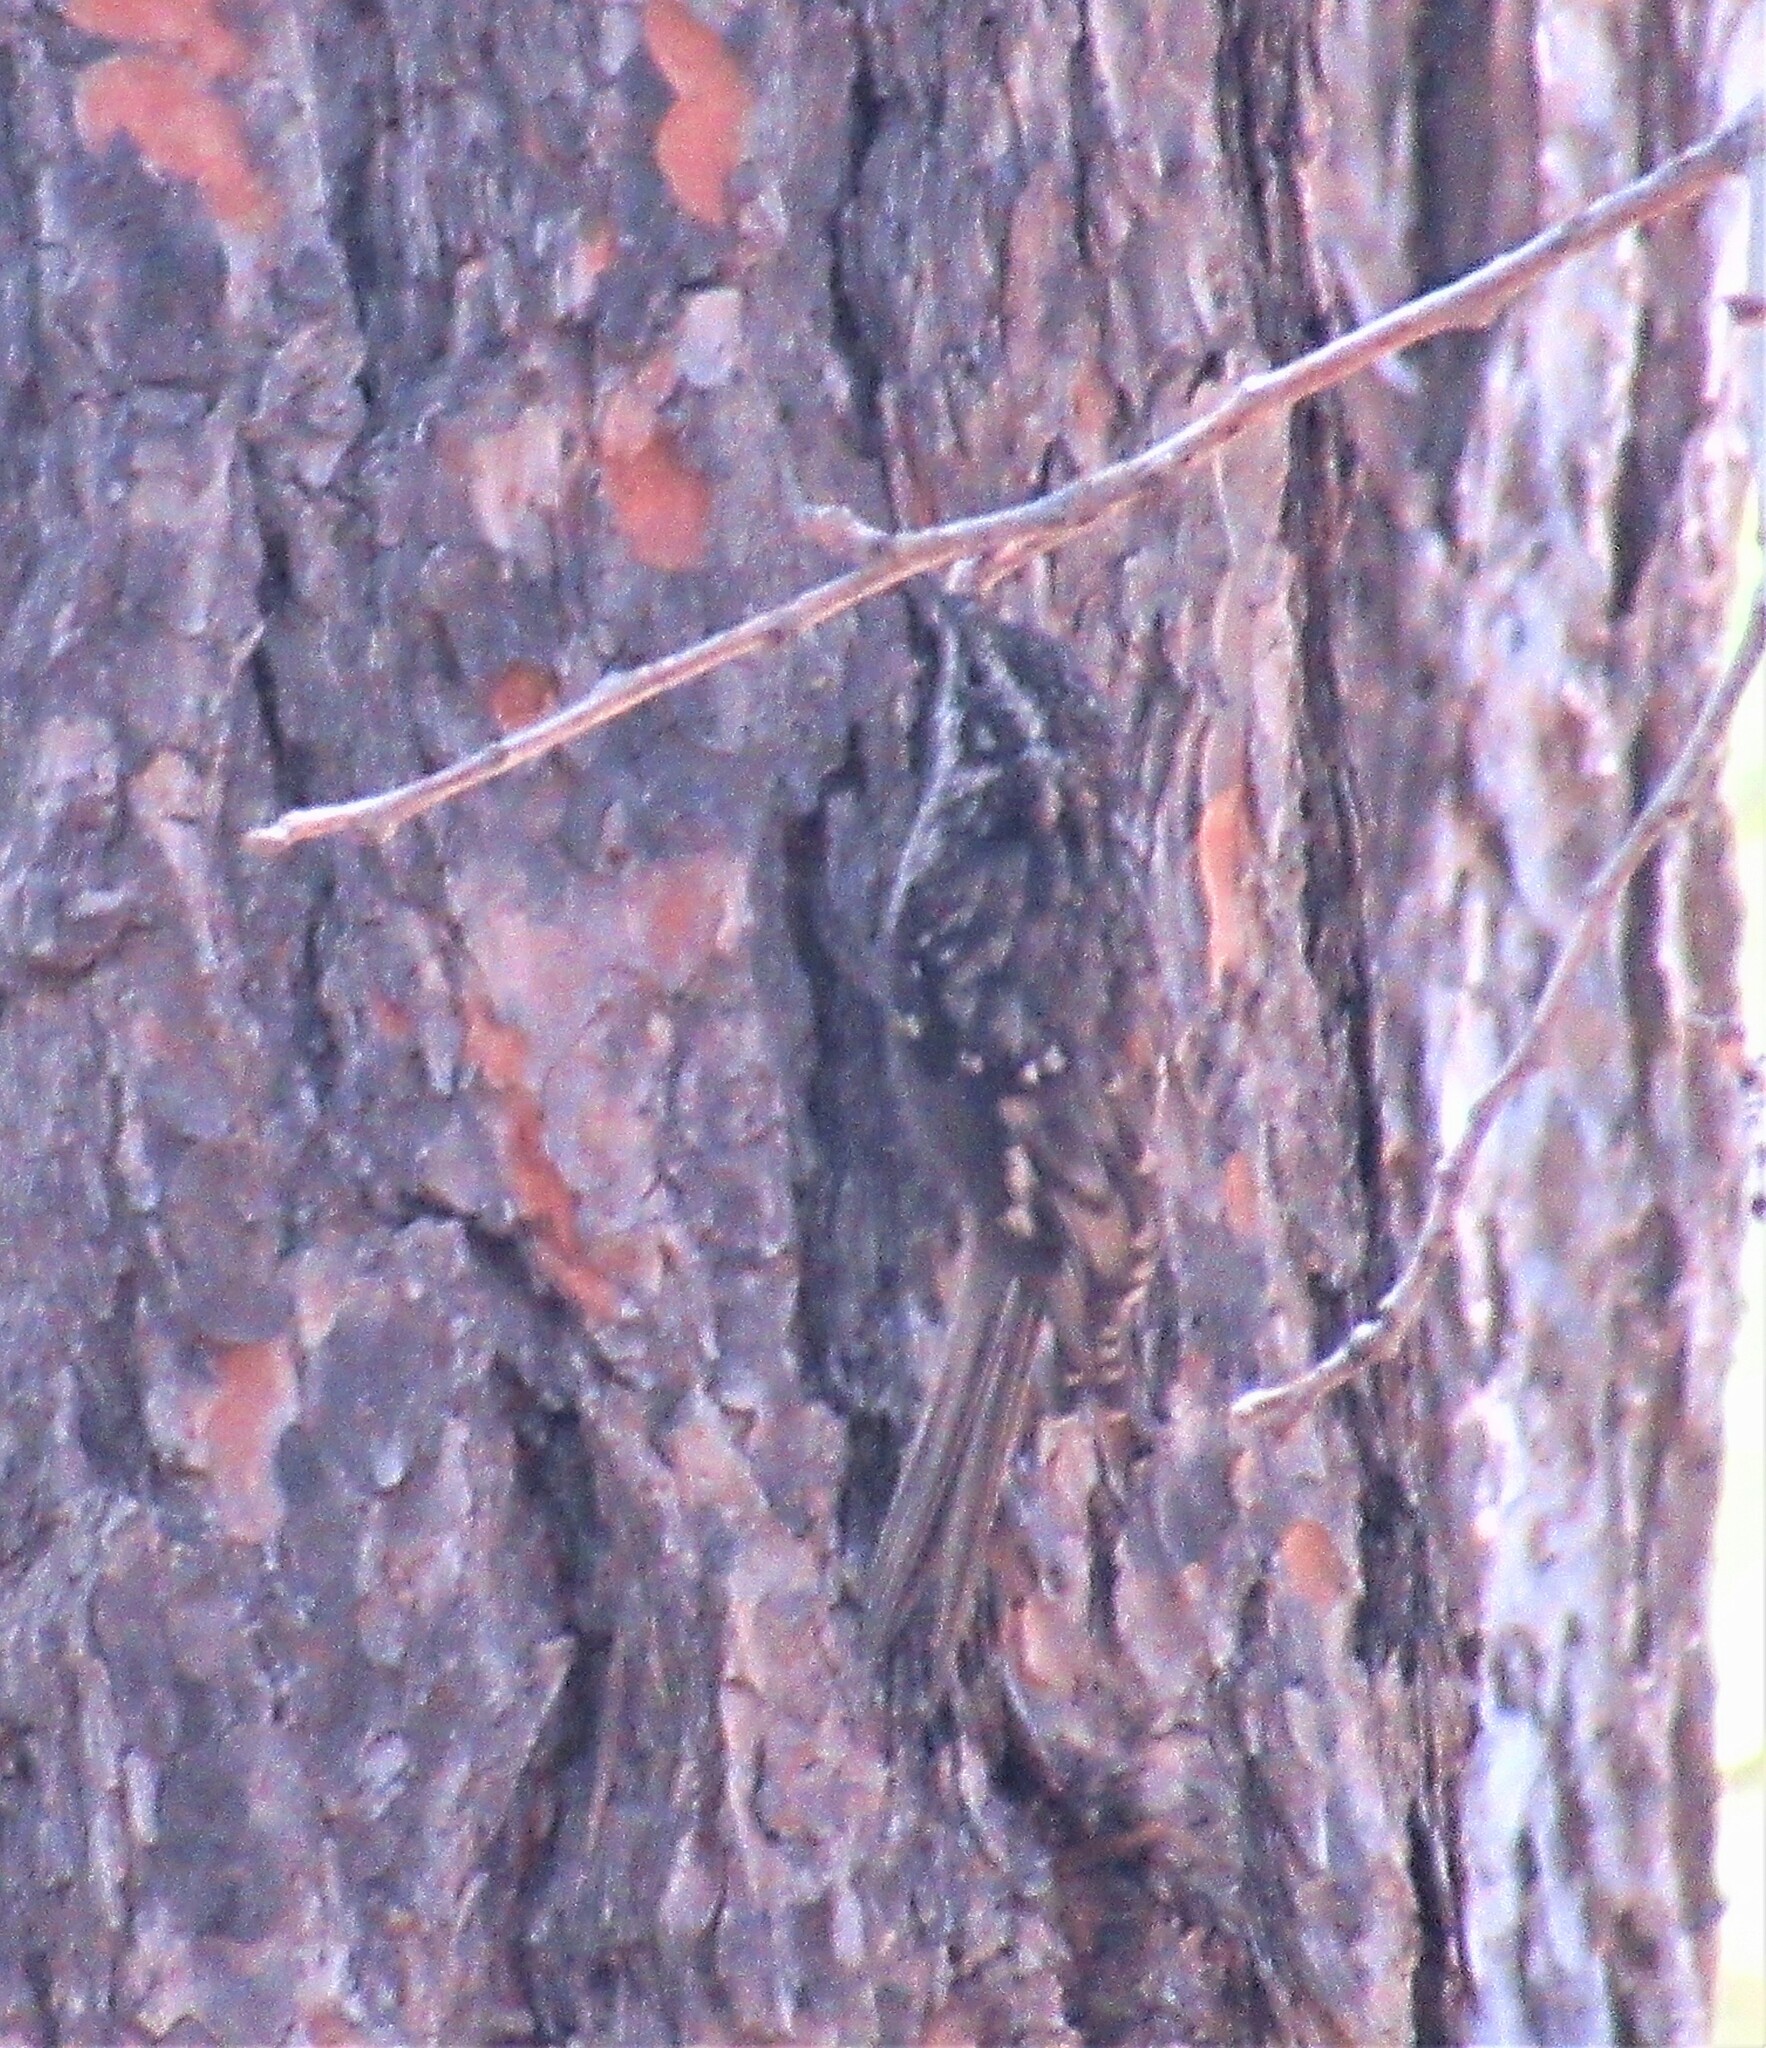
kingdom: Animalia
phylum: Chordata
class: Aves
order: Passeriformes
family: Certhiidae
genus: Certhia
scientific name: Certhia americana
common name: Brown creeper
